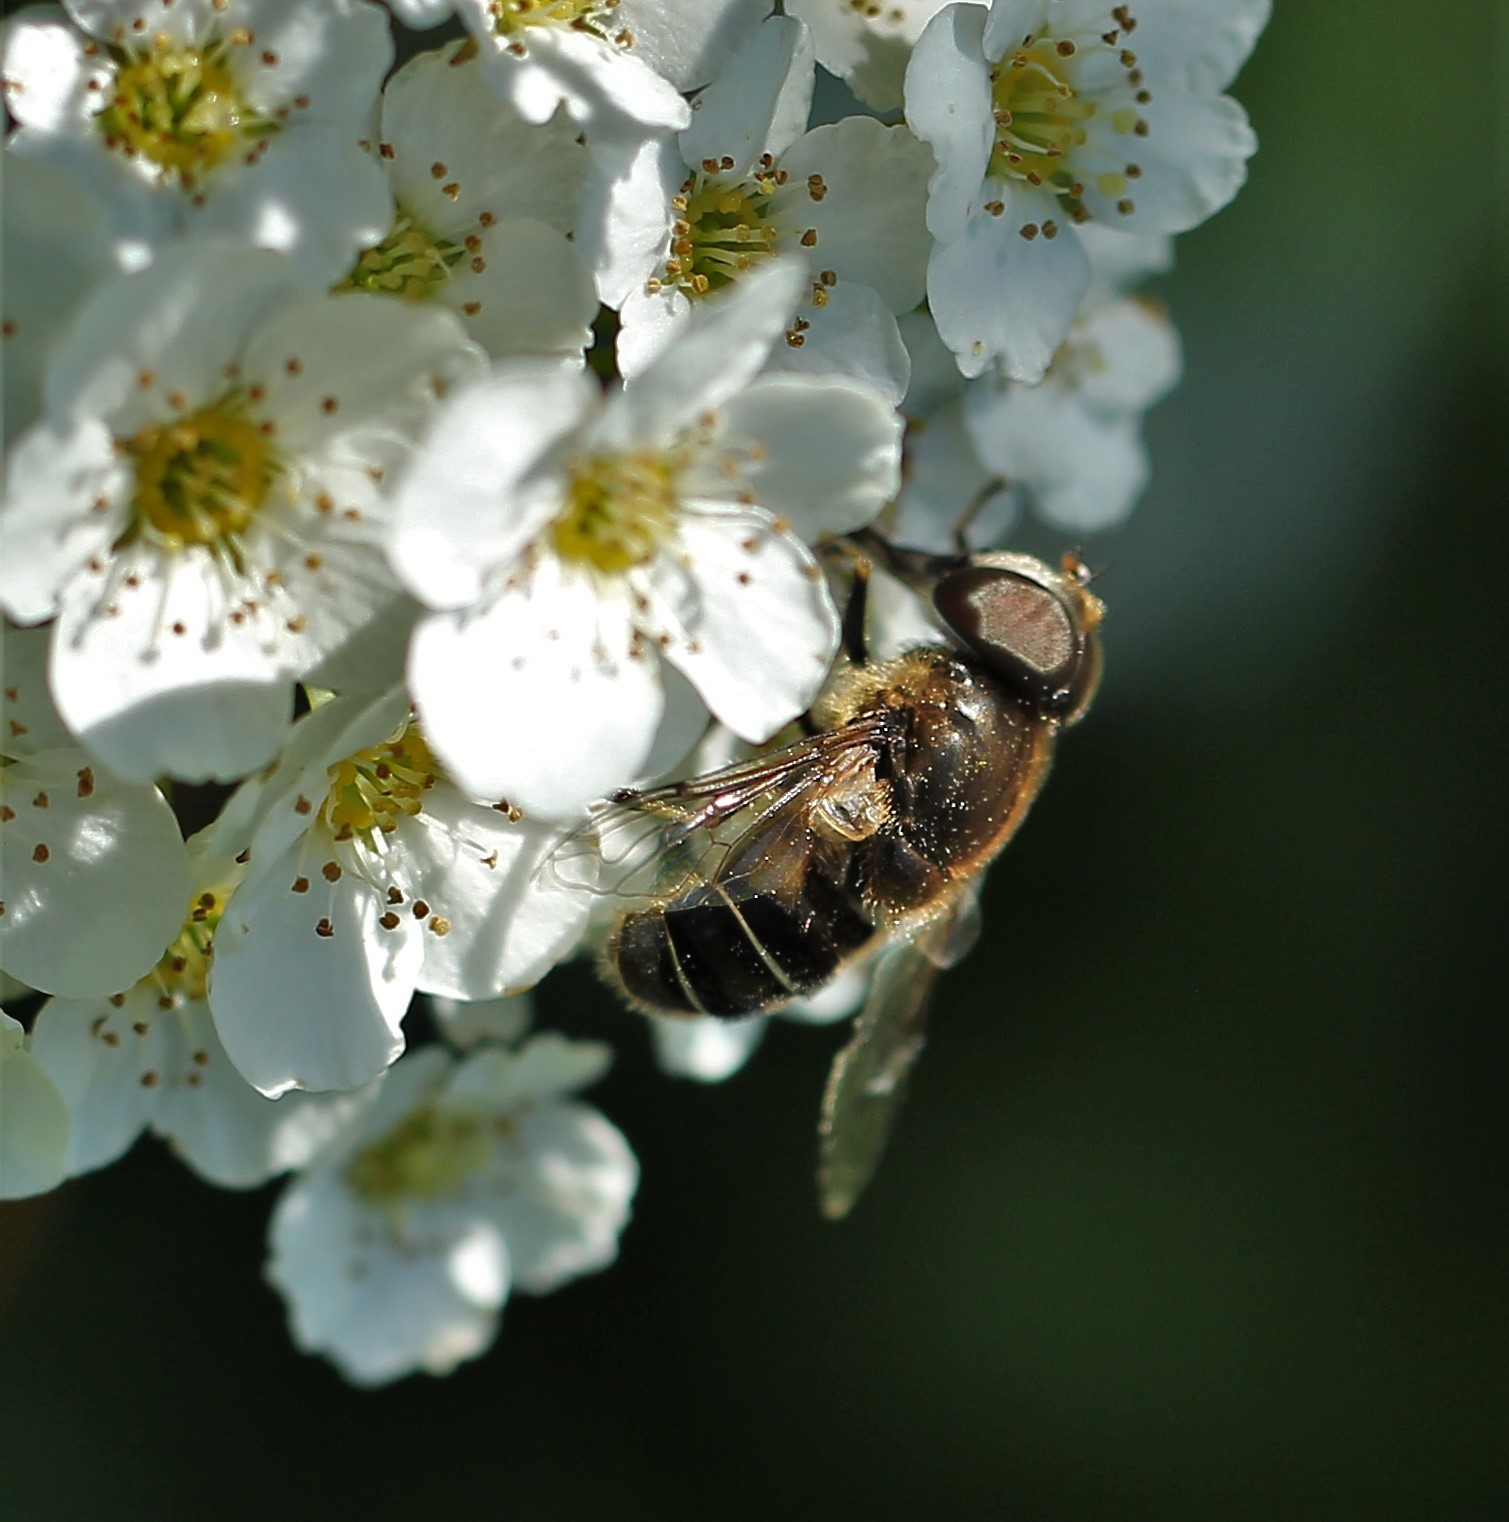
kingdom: Animalia
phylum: Arthropoda
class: Insecta
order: Diptera
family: Syrphidae
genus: Eristalis
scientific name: Eristalis nemorum
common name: Orange-spined drone fly
